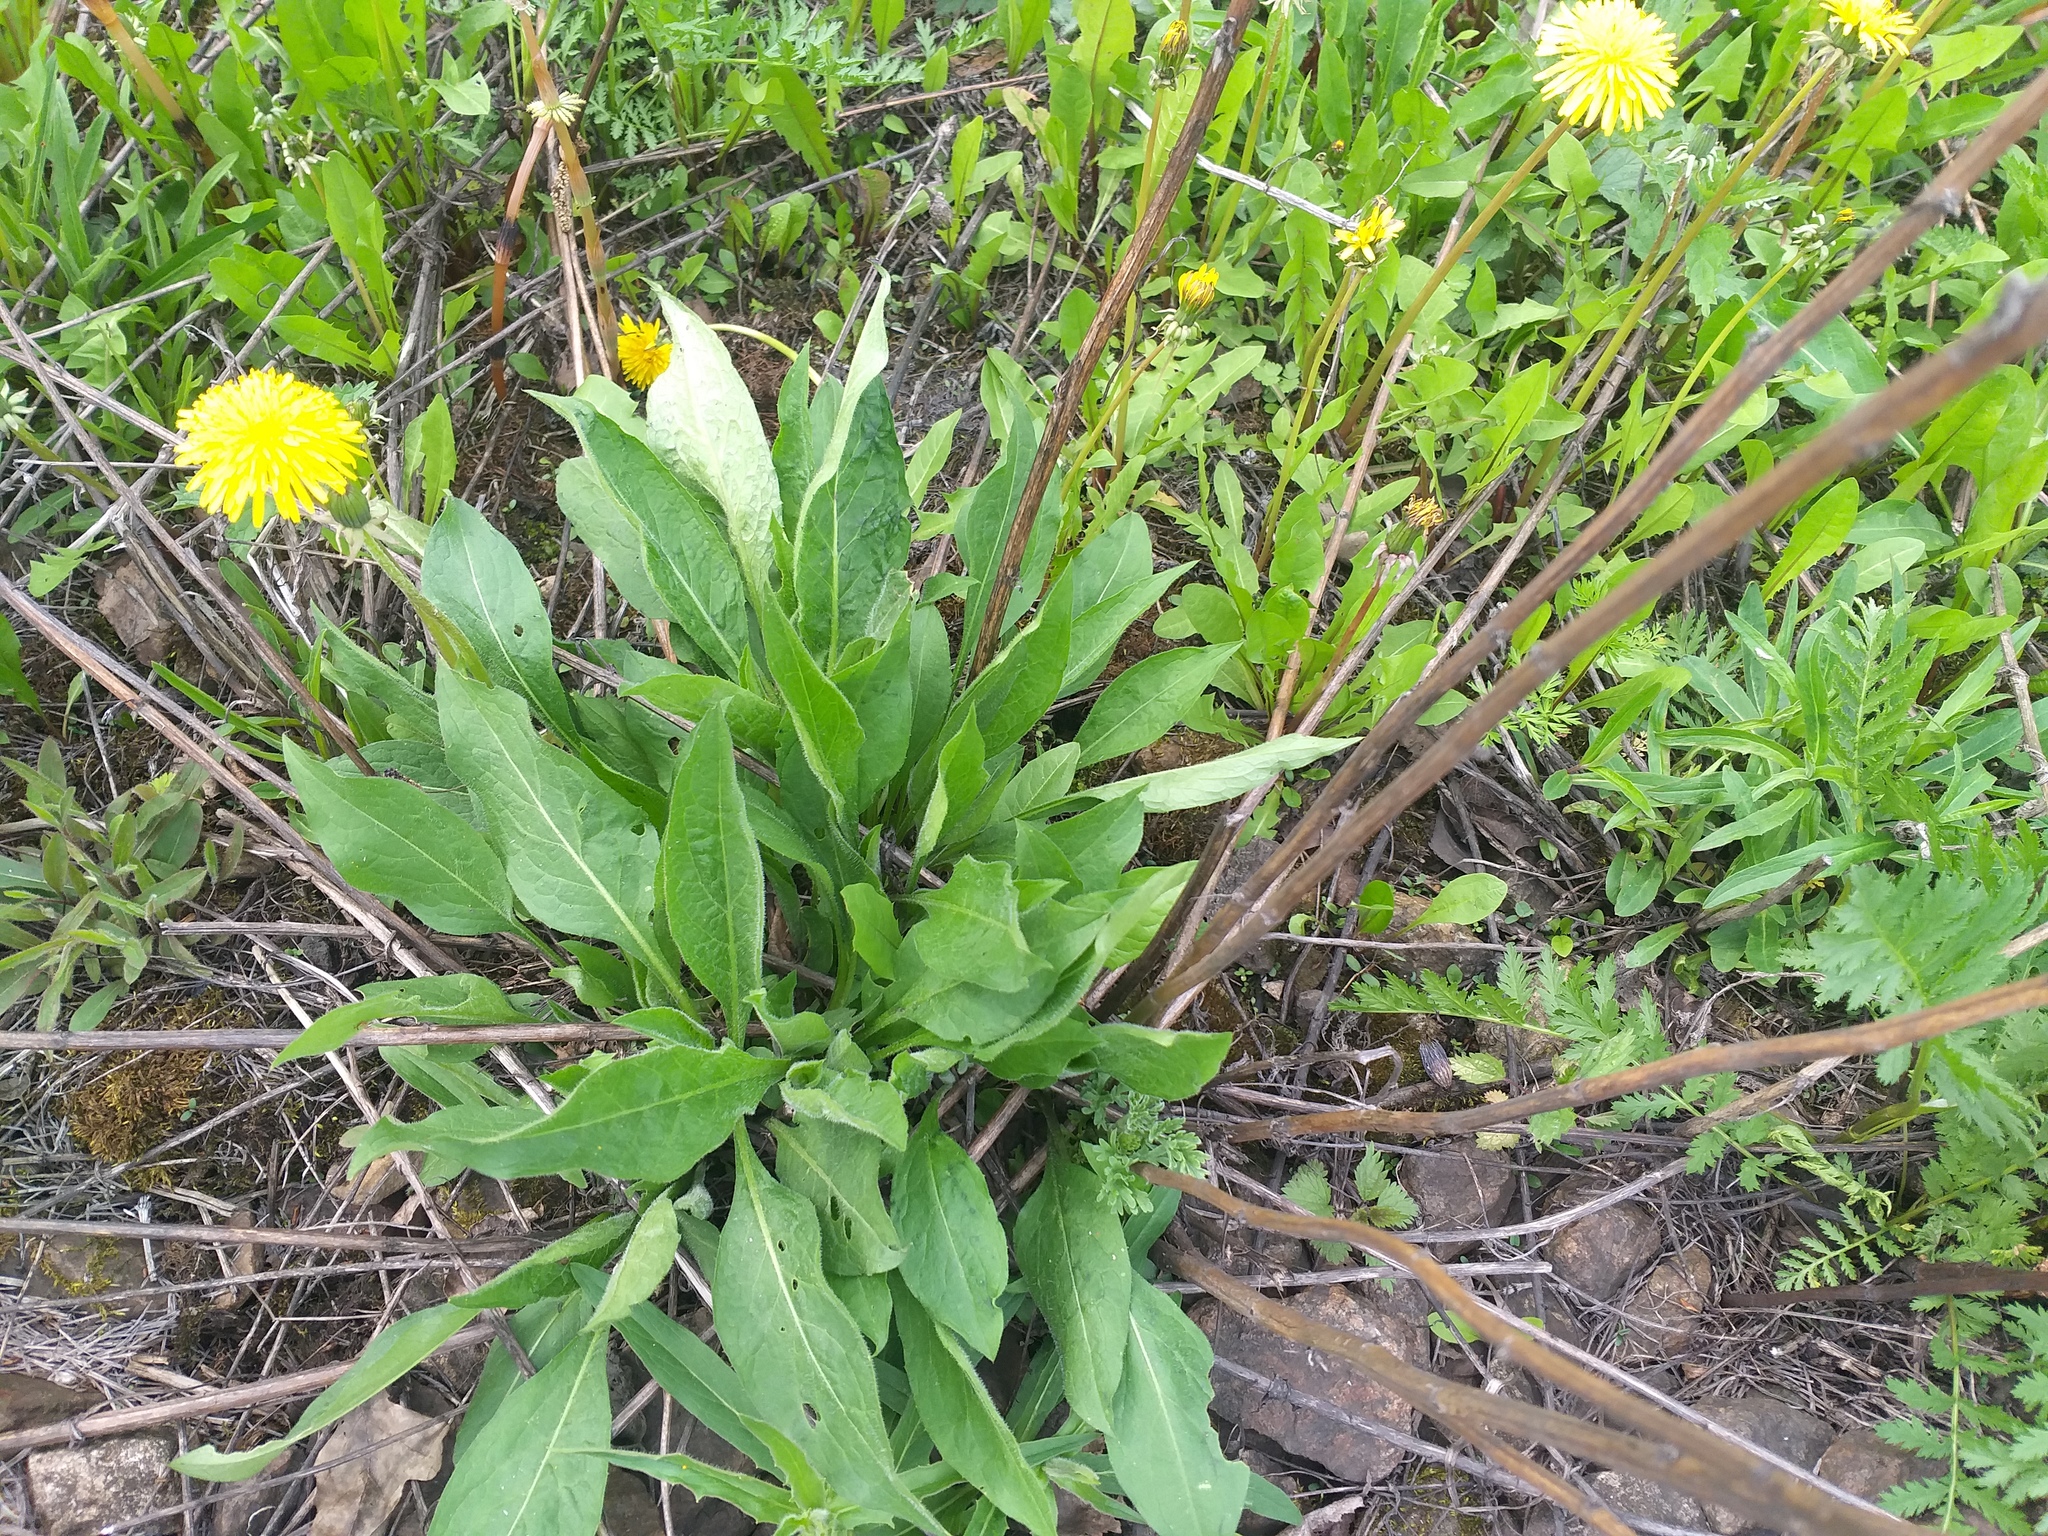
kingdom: Plantae
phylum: Tracheophyta
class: Magnoliopsida
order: Asterales
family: Asteraceae
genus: Centaurea
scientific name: Centaurea jacea
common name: Brown knapweed
